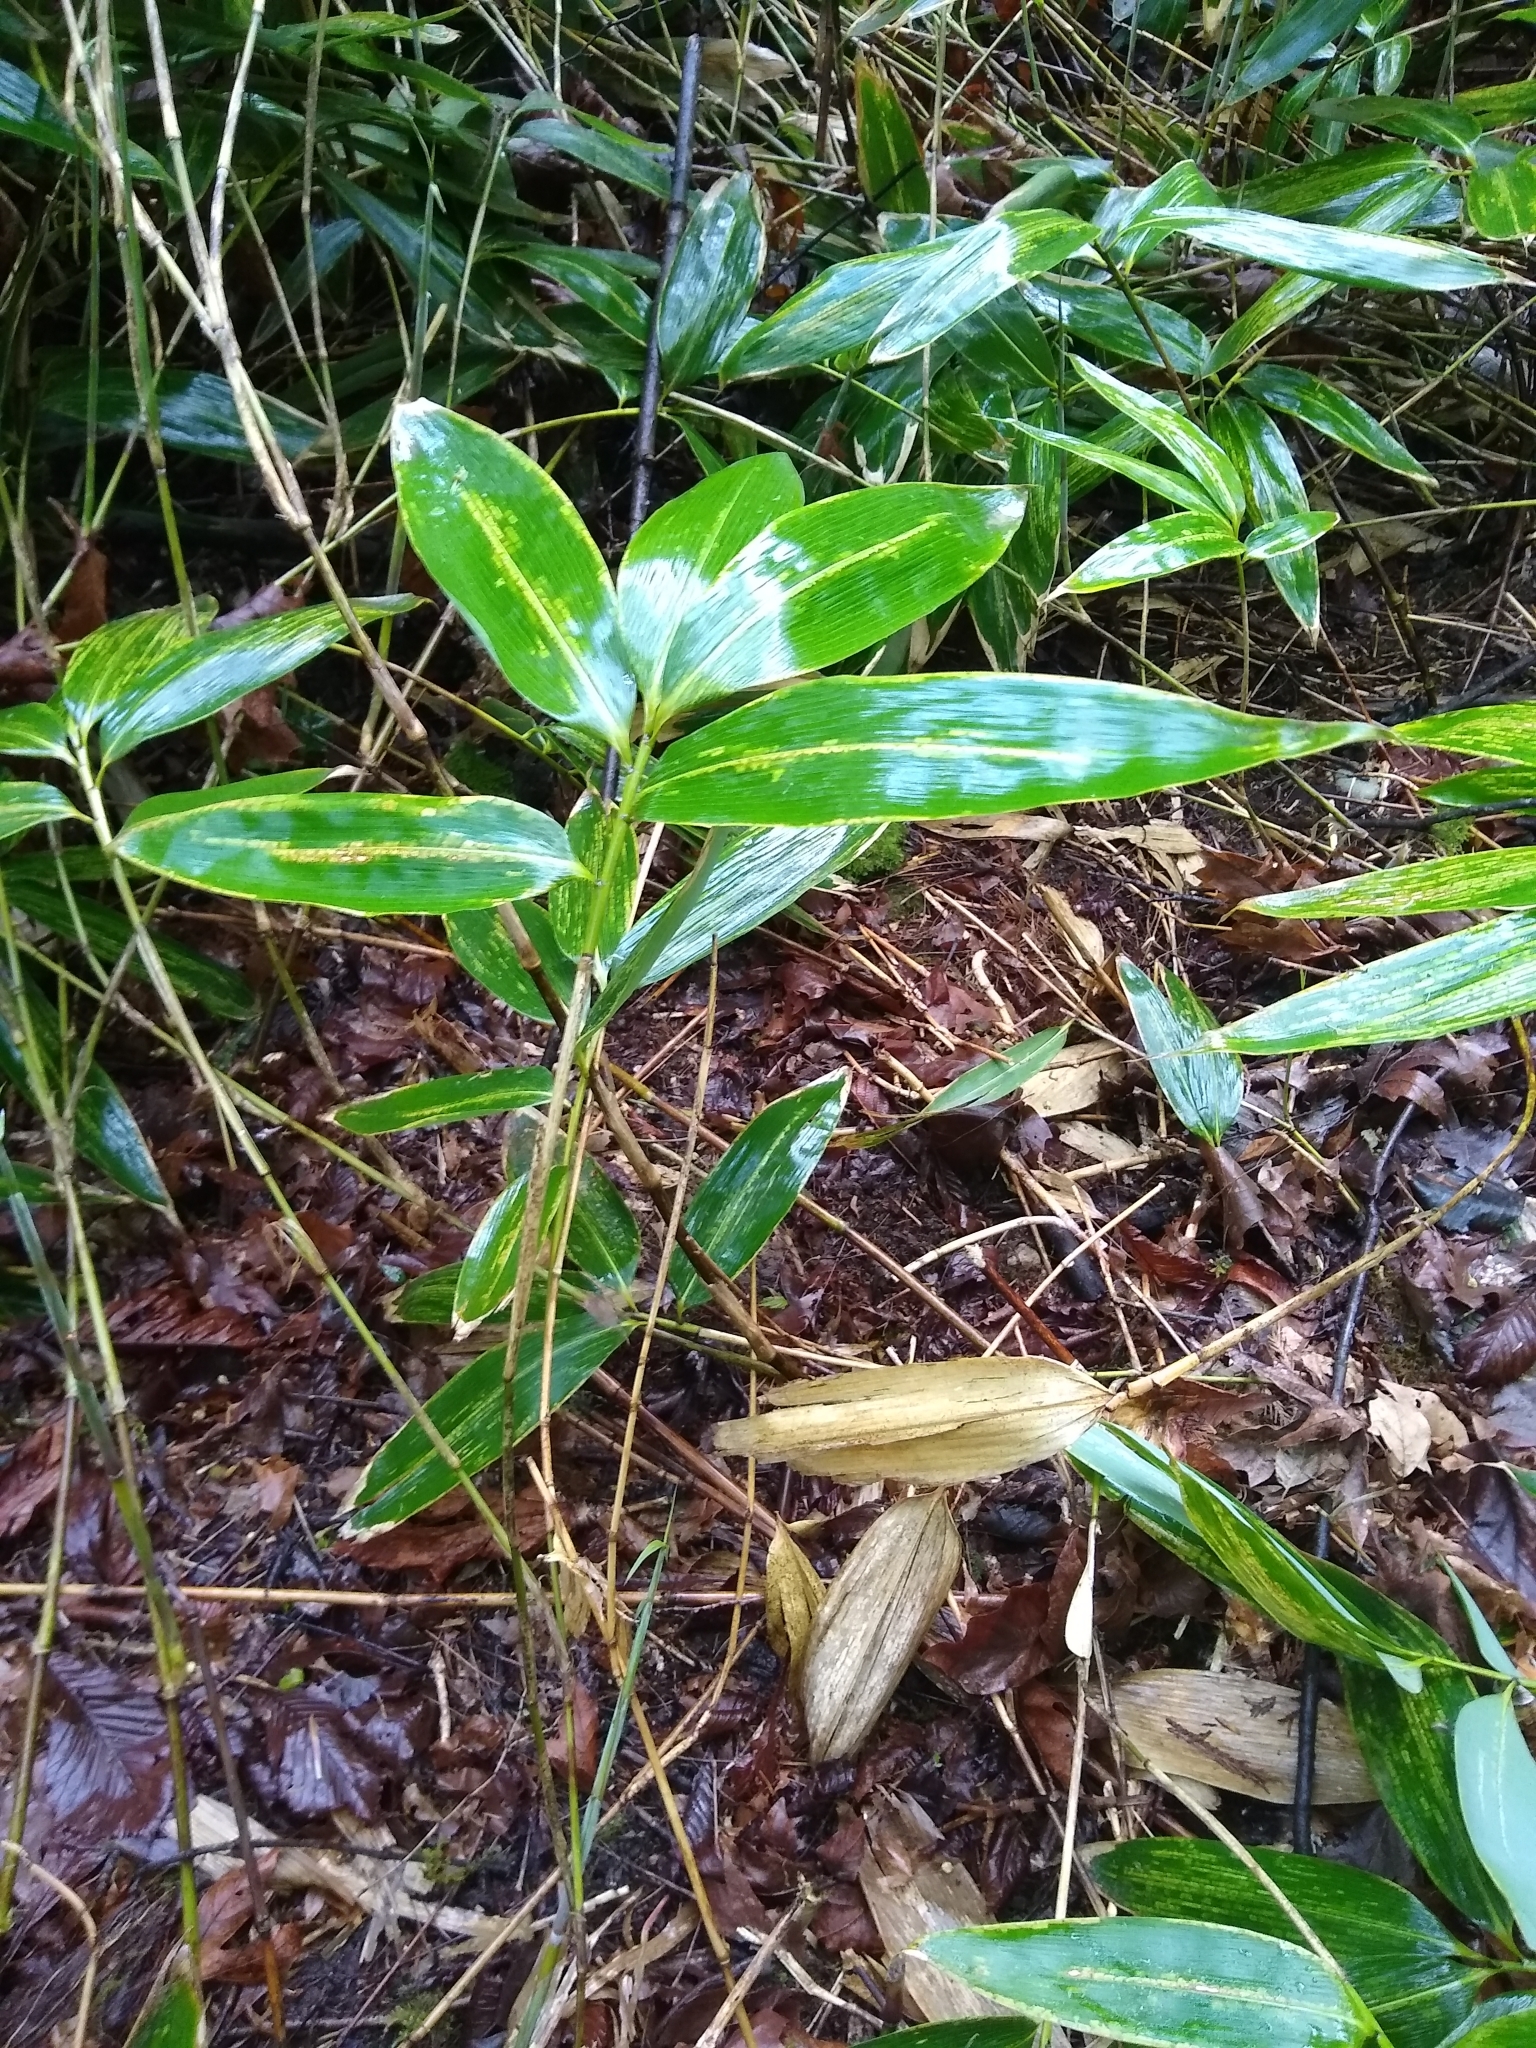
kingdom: Plantae
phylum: Tracheophyta
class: Liliopsida
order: Poales
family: Poaceae
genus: Sasa
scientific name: Sasa palmata
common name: Broad-leaved bamboo
